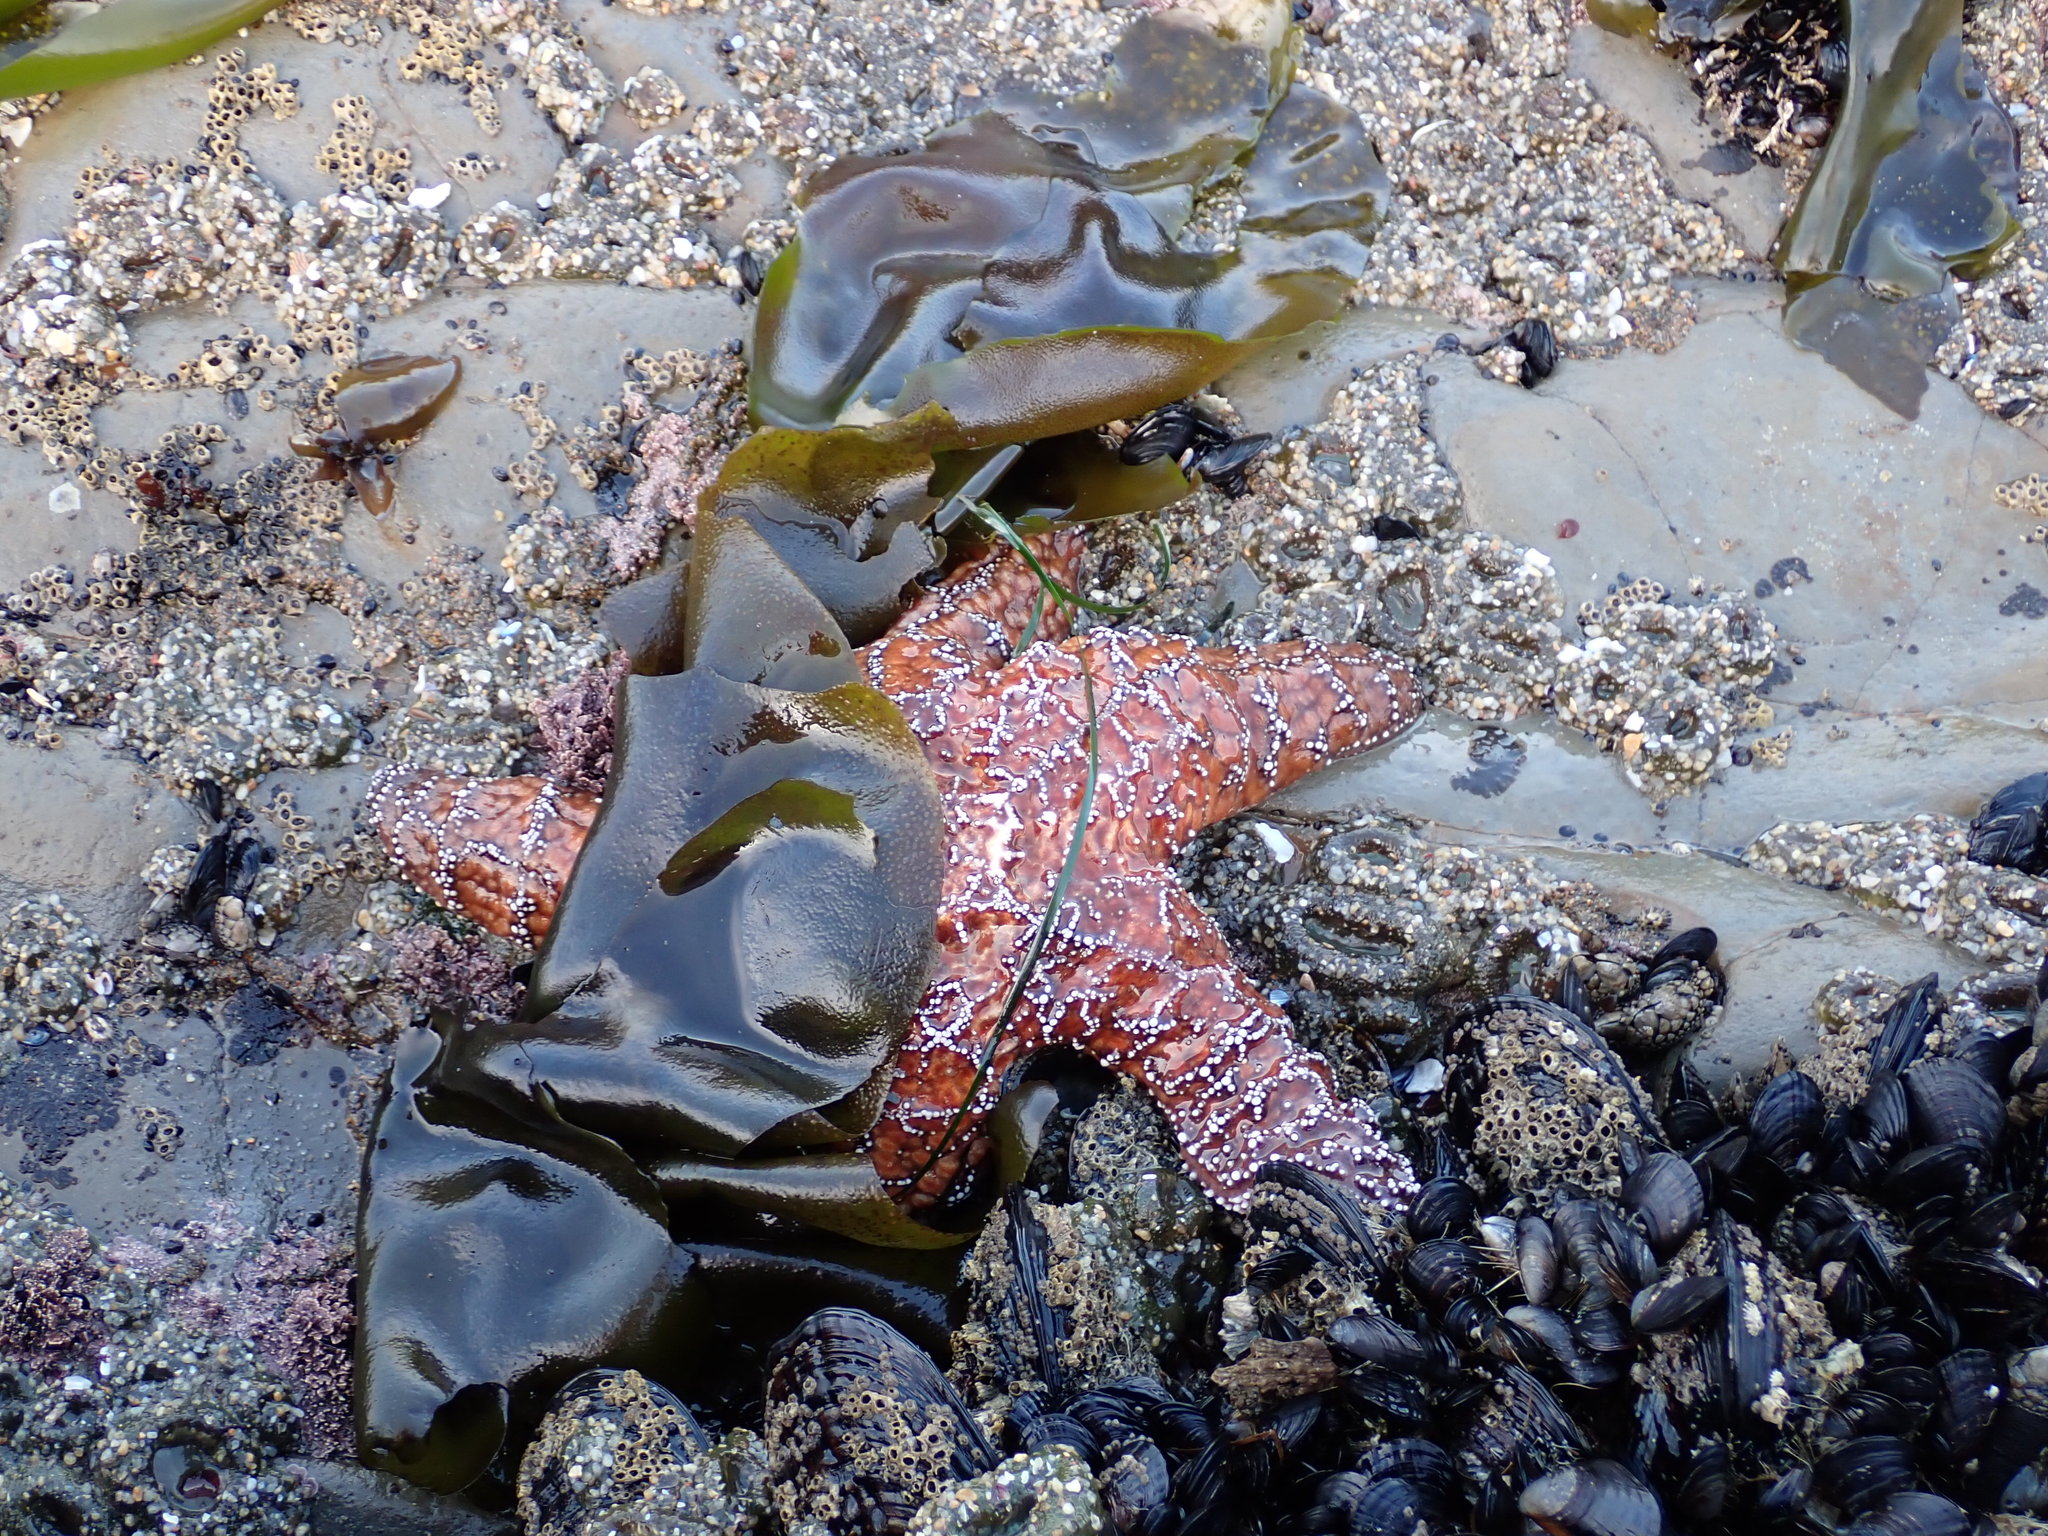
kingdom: Animalia
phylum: Echinodermata
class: Asteroidea
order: Forcipulatida
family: Asteriidae
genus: Pisaster
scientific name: Pisaster ochraceus
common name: Ochre stars
